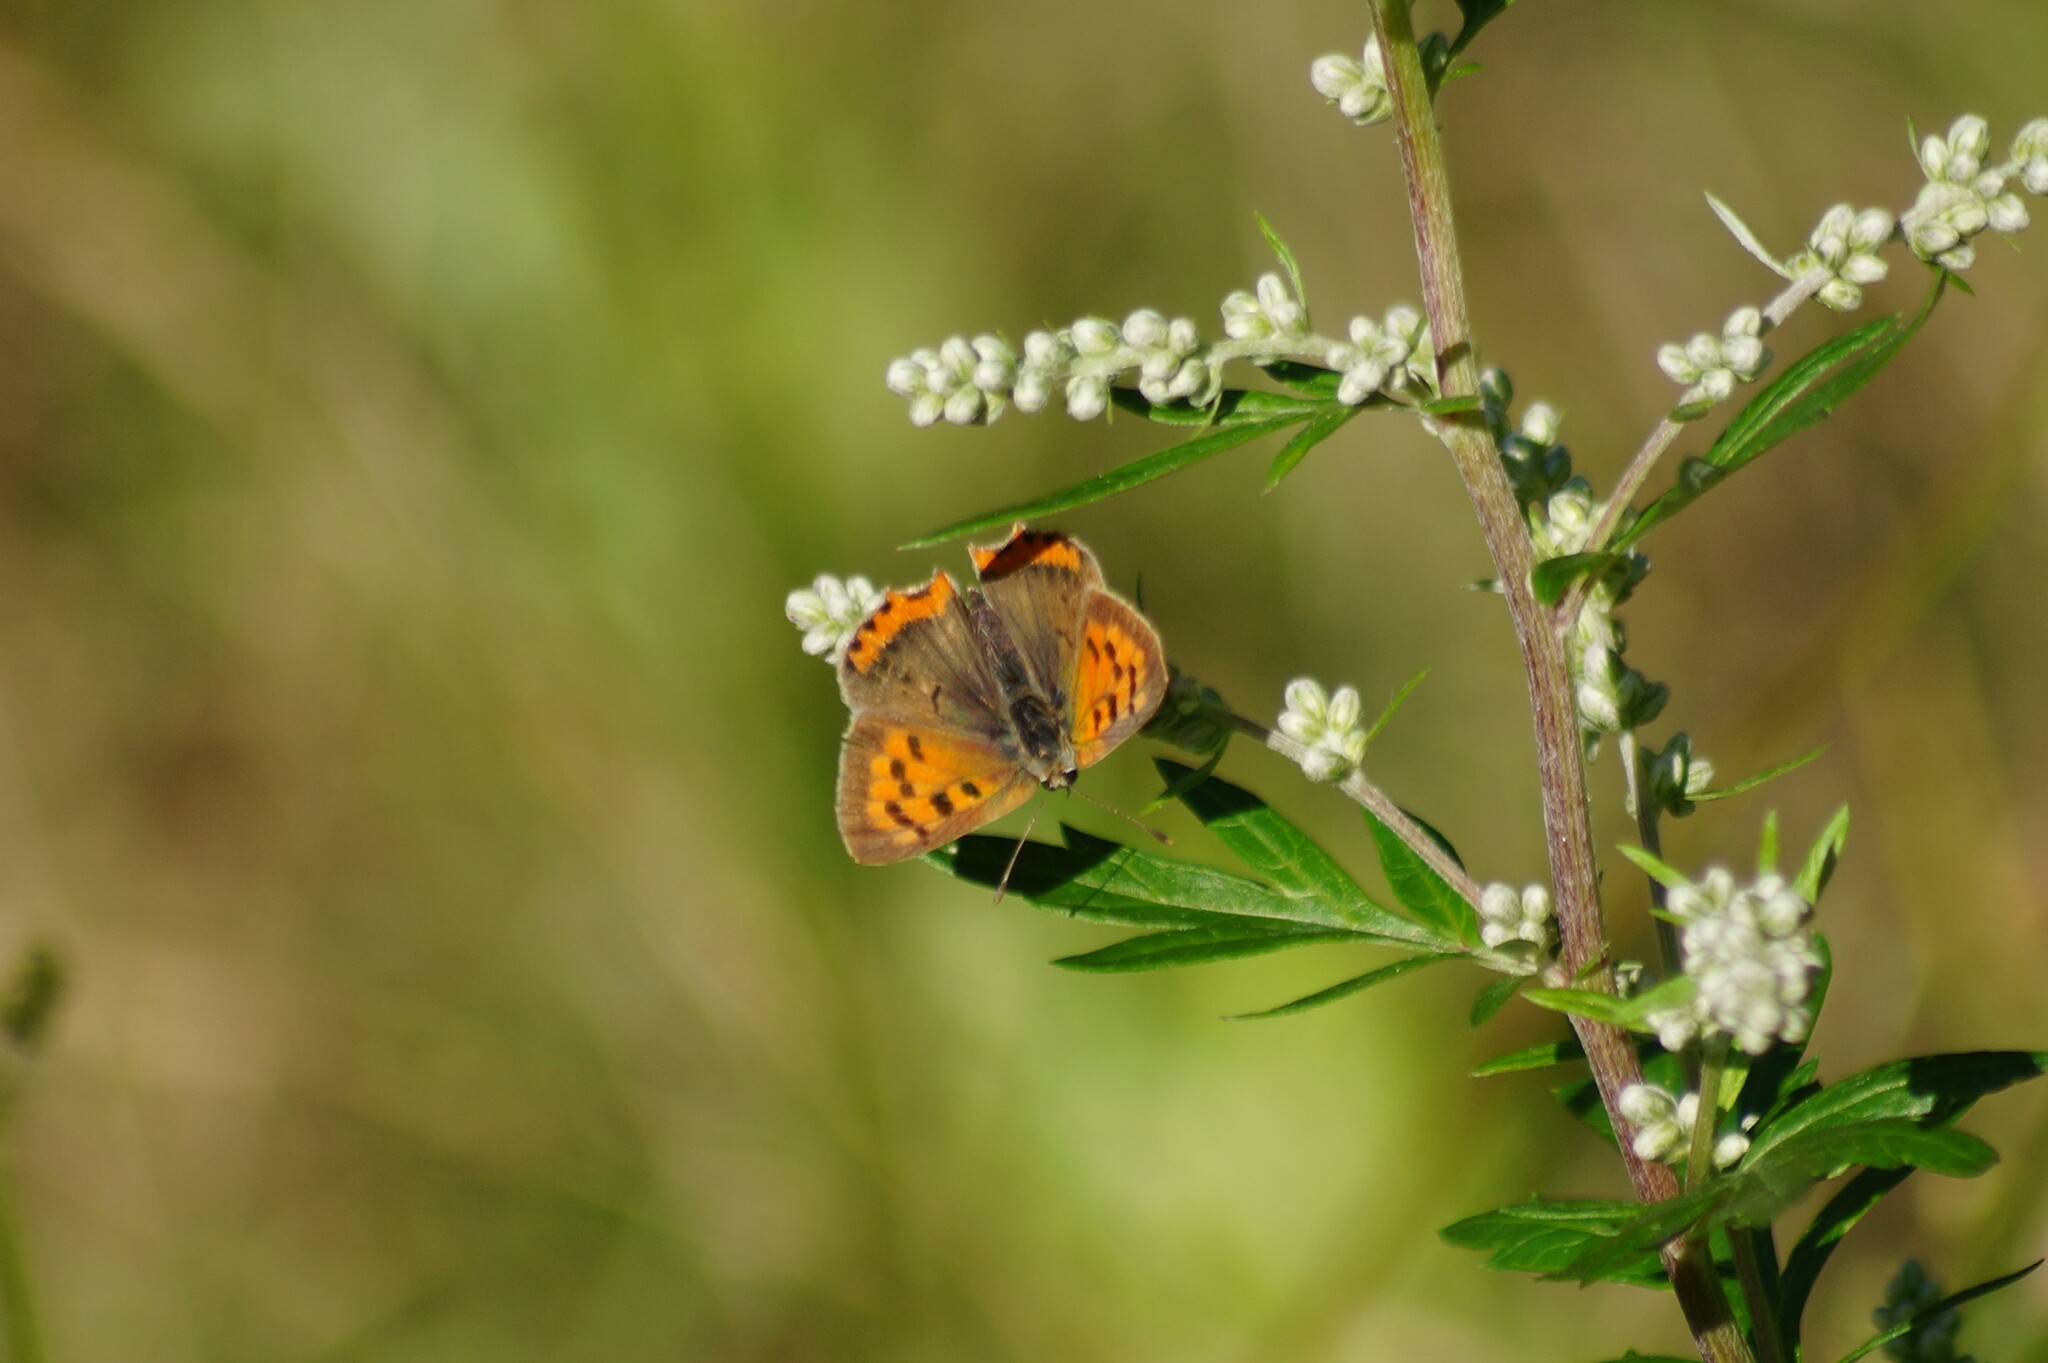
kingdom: Animalia
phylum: Arthropoda
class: Insecta
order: Lepidoptera
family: Lycaenidae
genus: Lycaena
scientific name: Lycaena phlaeas
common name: Small copper
